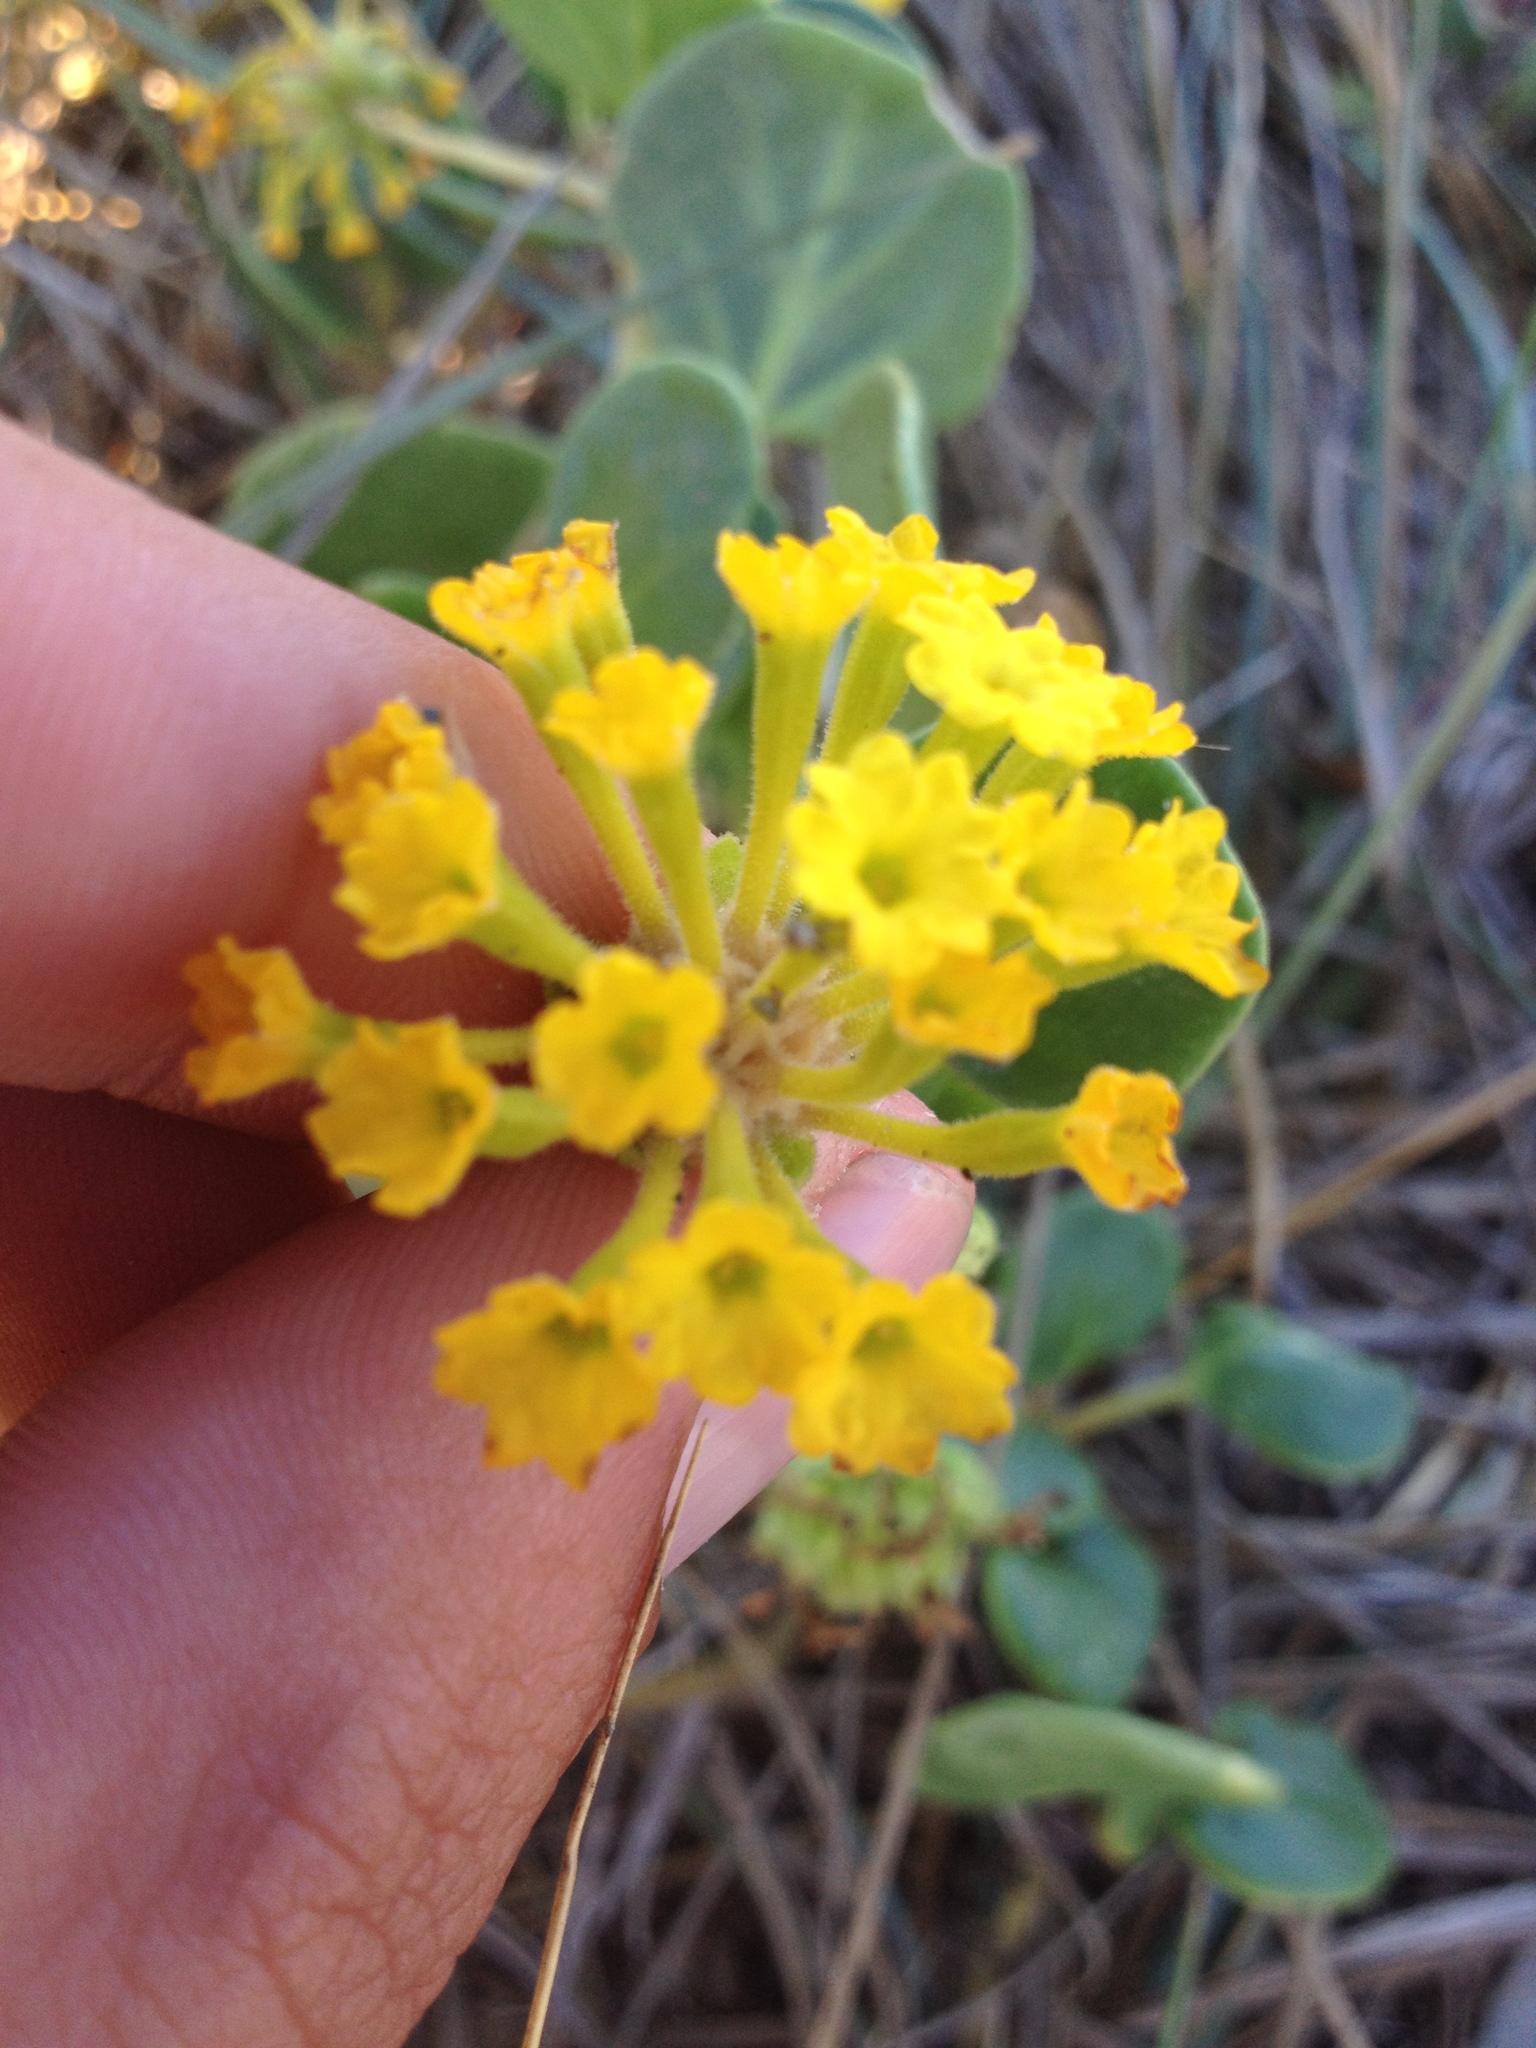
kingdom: Plantae
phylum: Tracheophyta
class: Magnoliopsida
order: Caryophyllales
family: Nyctaginaceae
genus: Abronia
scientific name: Abronia latifolia
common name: Yellow sand-verbena
